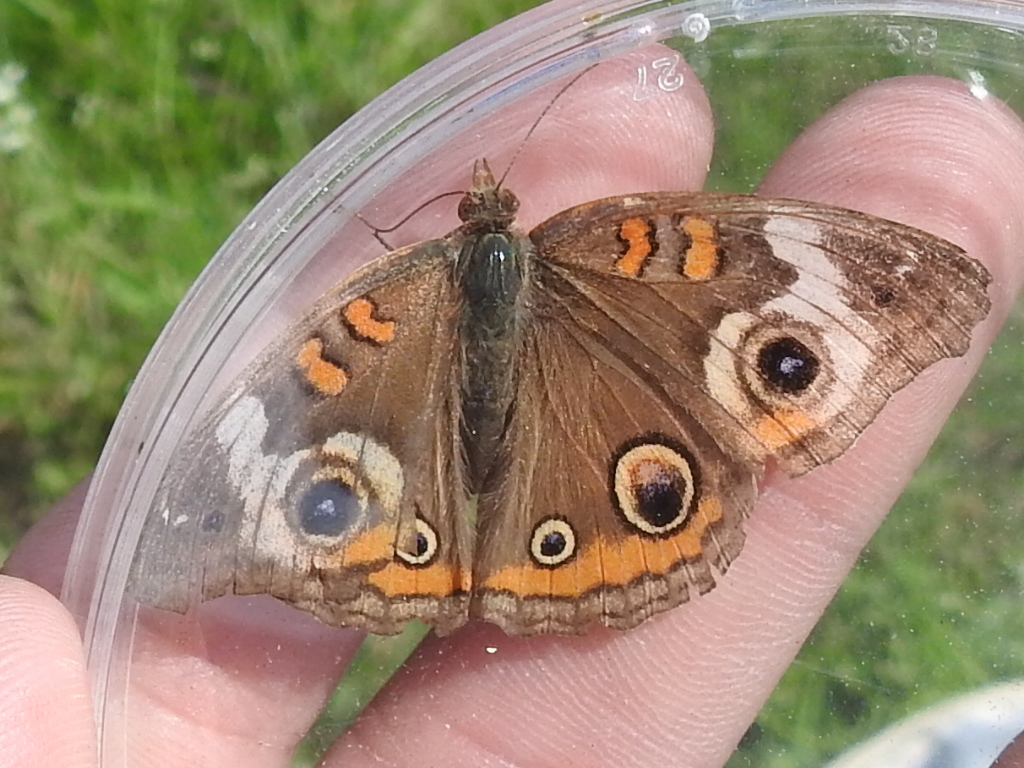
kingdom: Animalia
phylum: Arthropoda
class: Insecta
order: Lepidoptera
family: Nymphalidae
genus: Junonia
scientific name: Junonia coenia
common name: Common buckeye
